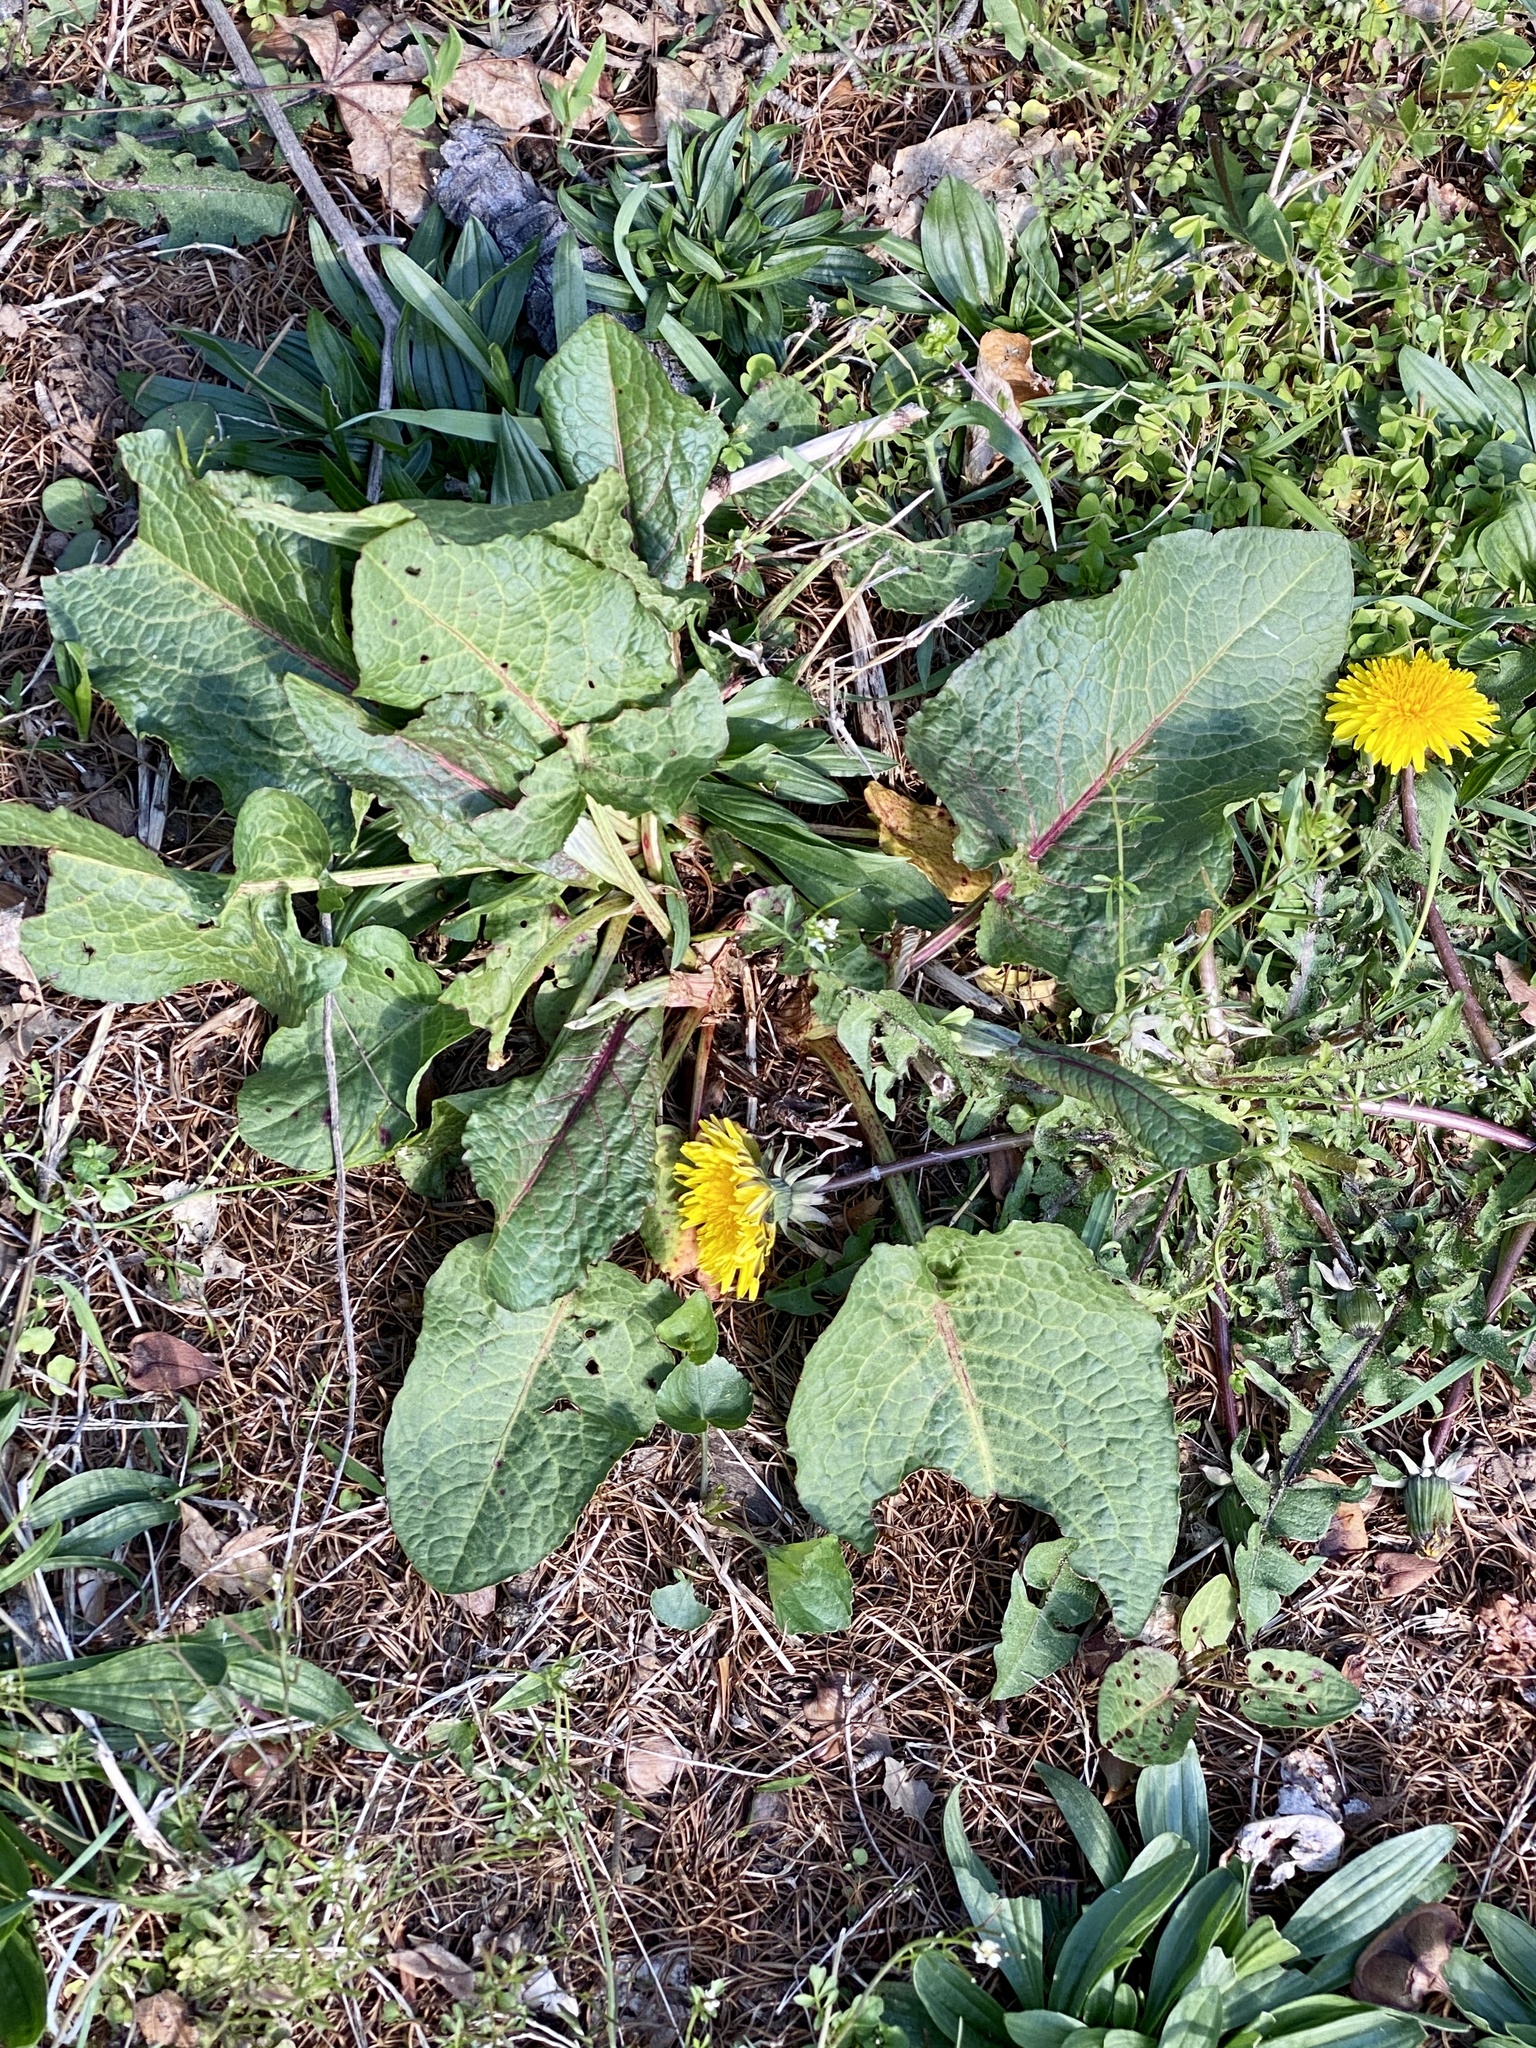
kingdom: Plantae
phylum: Tracheophyta
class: Magnoliopsida
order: Caryophyllales
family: Polygonaceae
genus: Rumex
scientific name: Rumex obtusifolius
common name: Bitter dock
